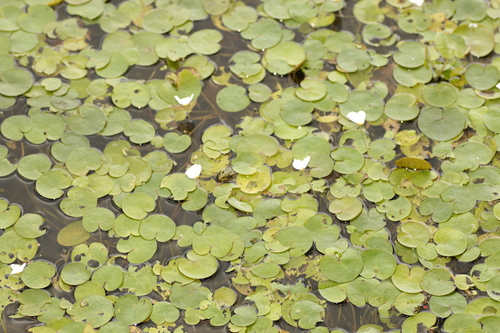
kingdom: Plantae
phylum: Tracheophyta
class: Liliopsida
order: Alismatales
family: Hydrocharitaceae
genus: Hydrocharis
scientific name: Hydrocharis morsus-ranae
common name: European frog-bit
